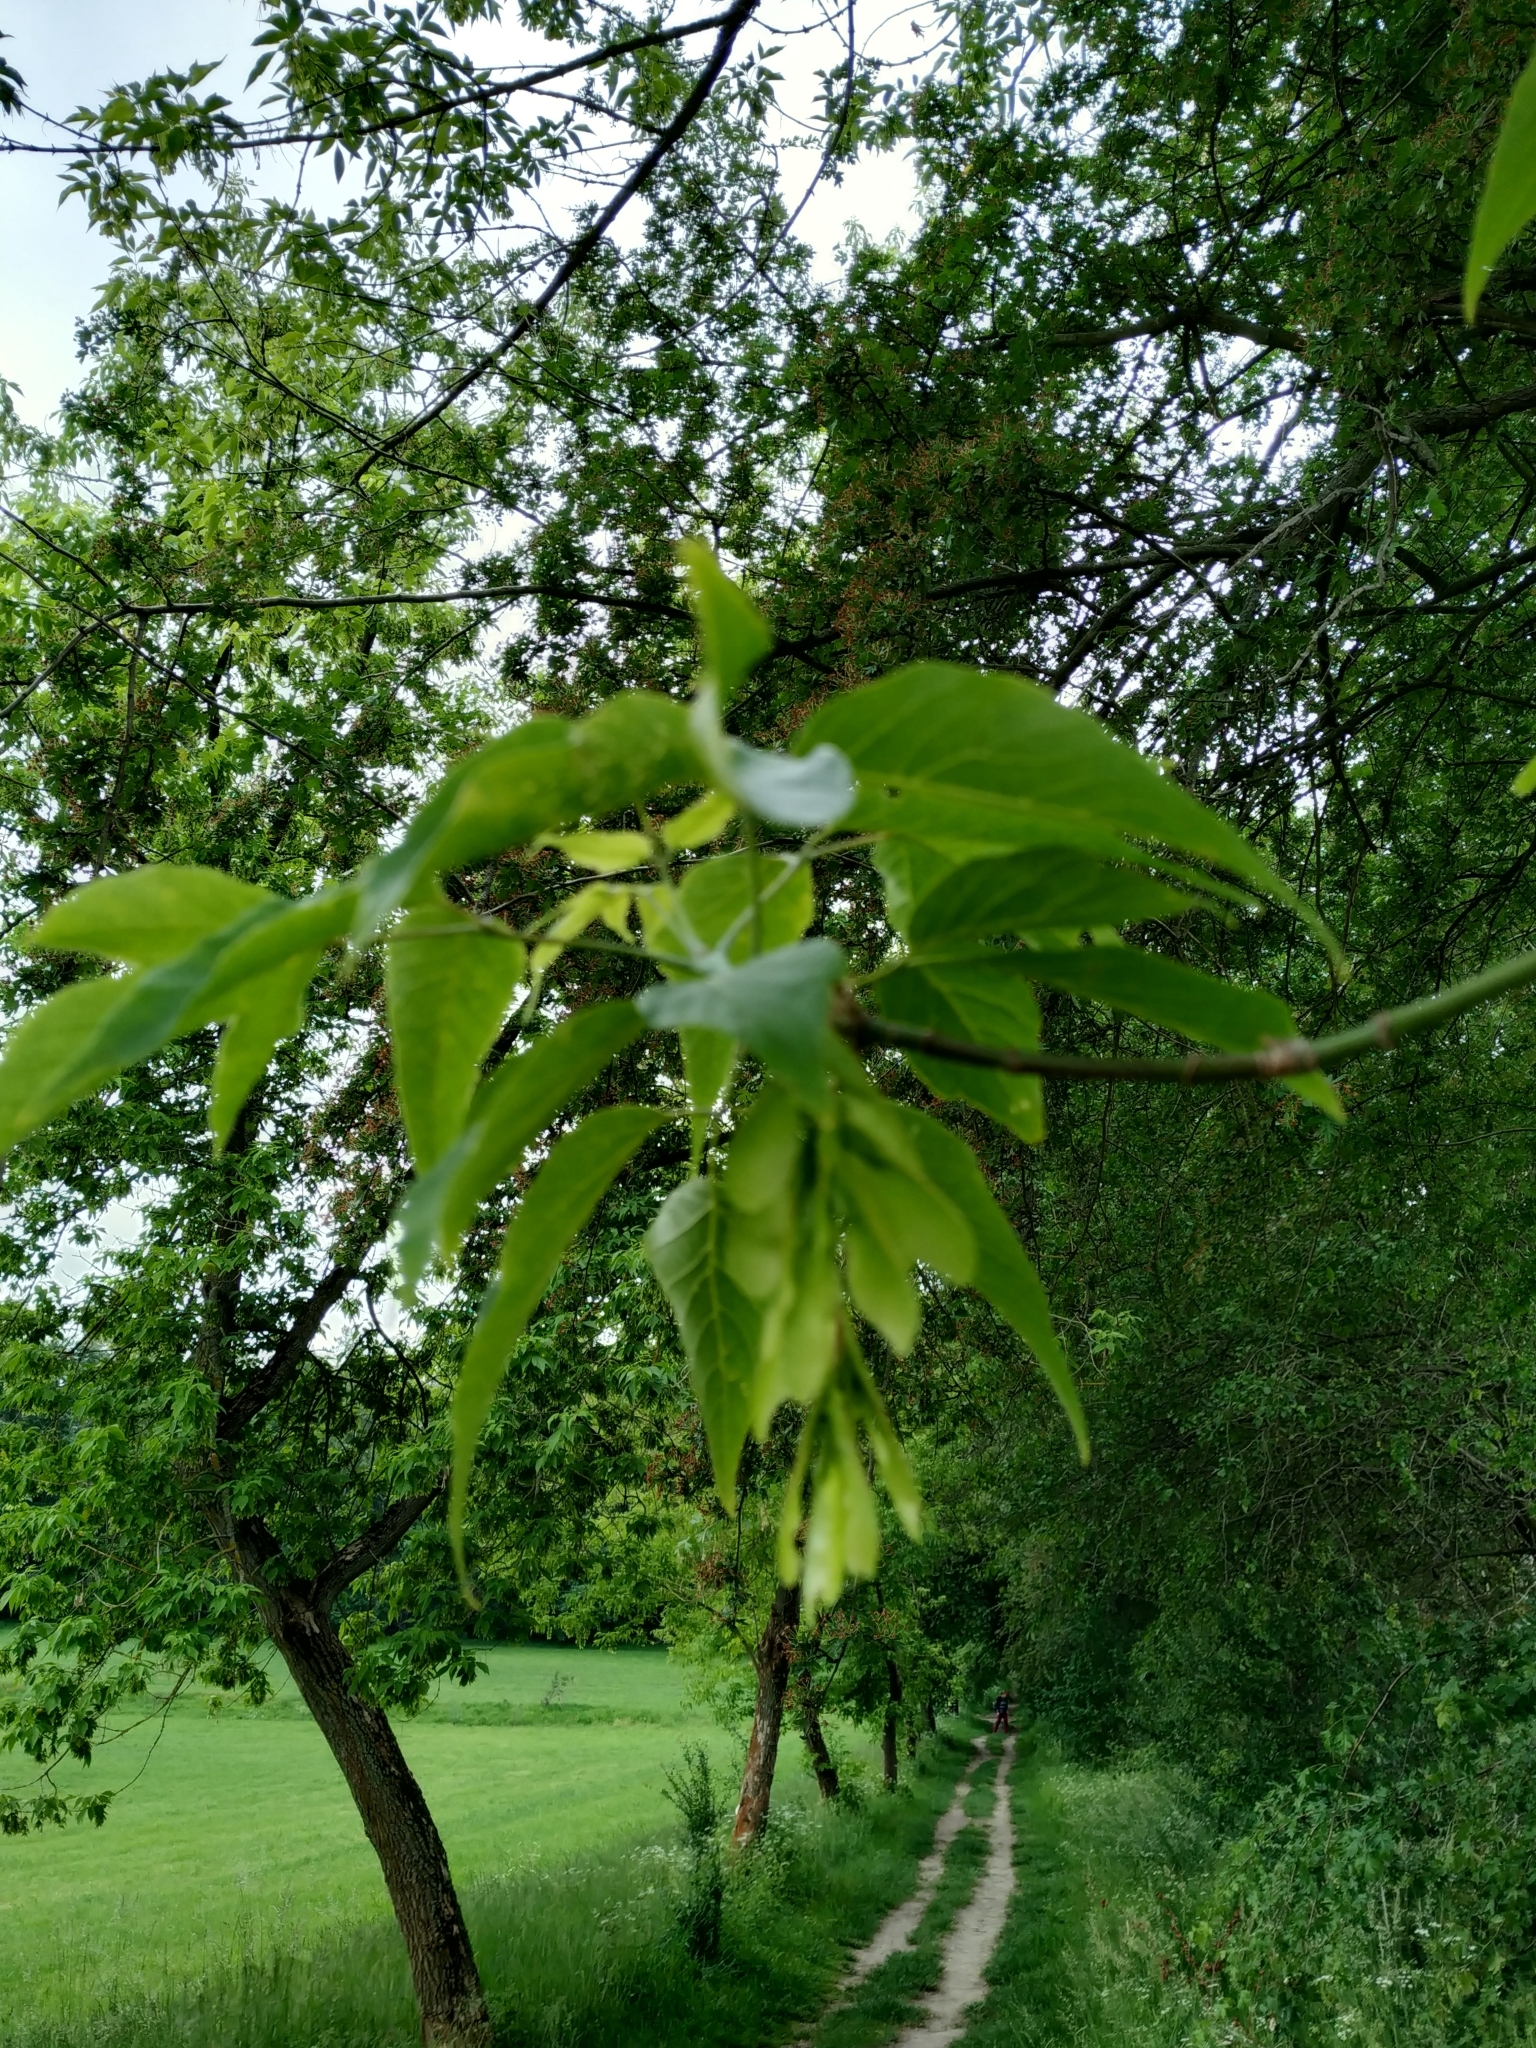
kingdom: Plantae
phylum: Tracheophyta
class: Magnoliopsida
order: Sapindales
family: Sapindaceae
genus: Acer
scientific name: Acer negundo
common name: Ashleaf maple
